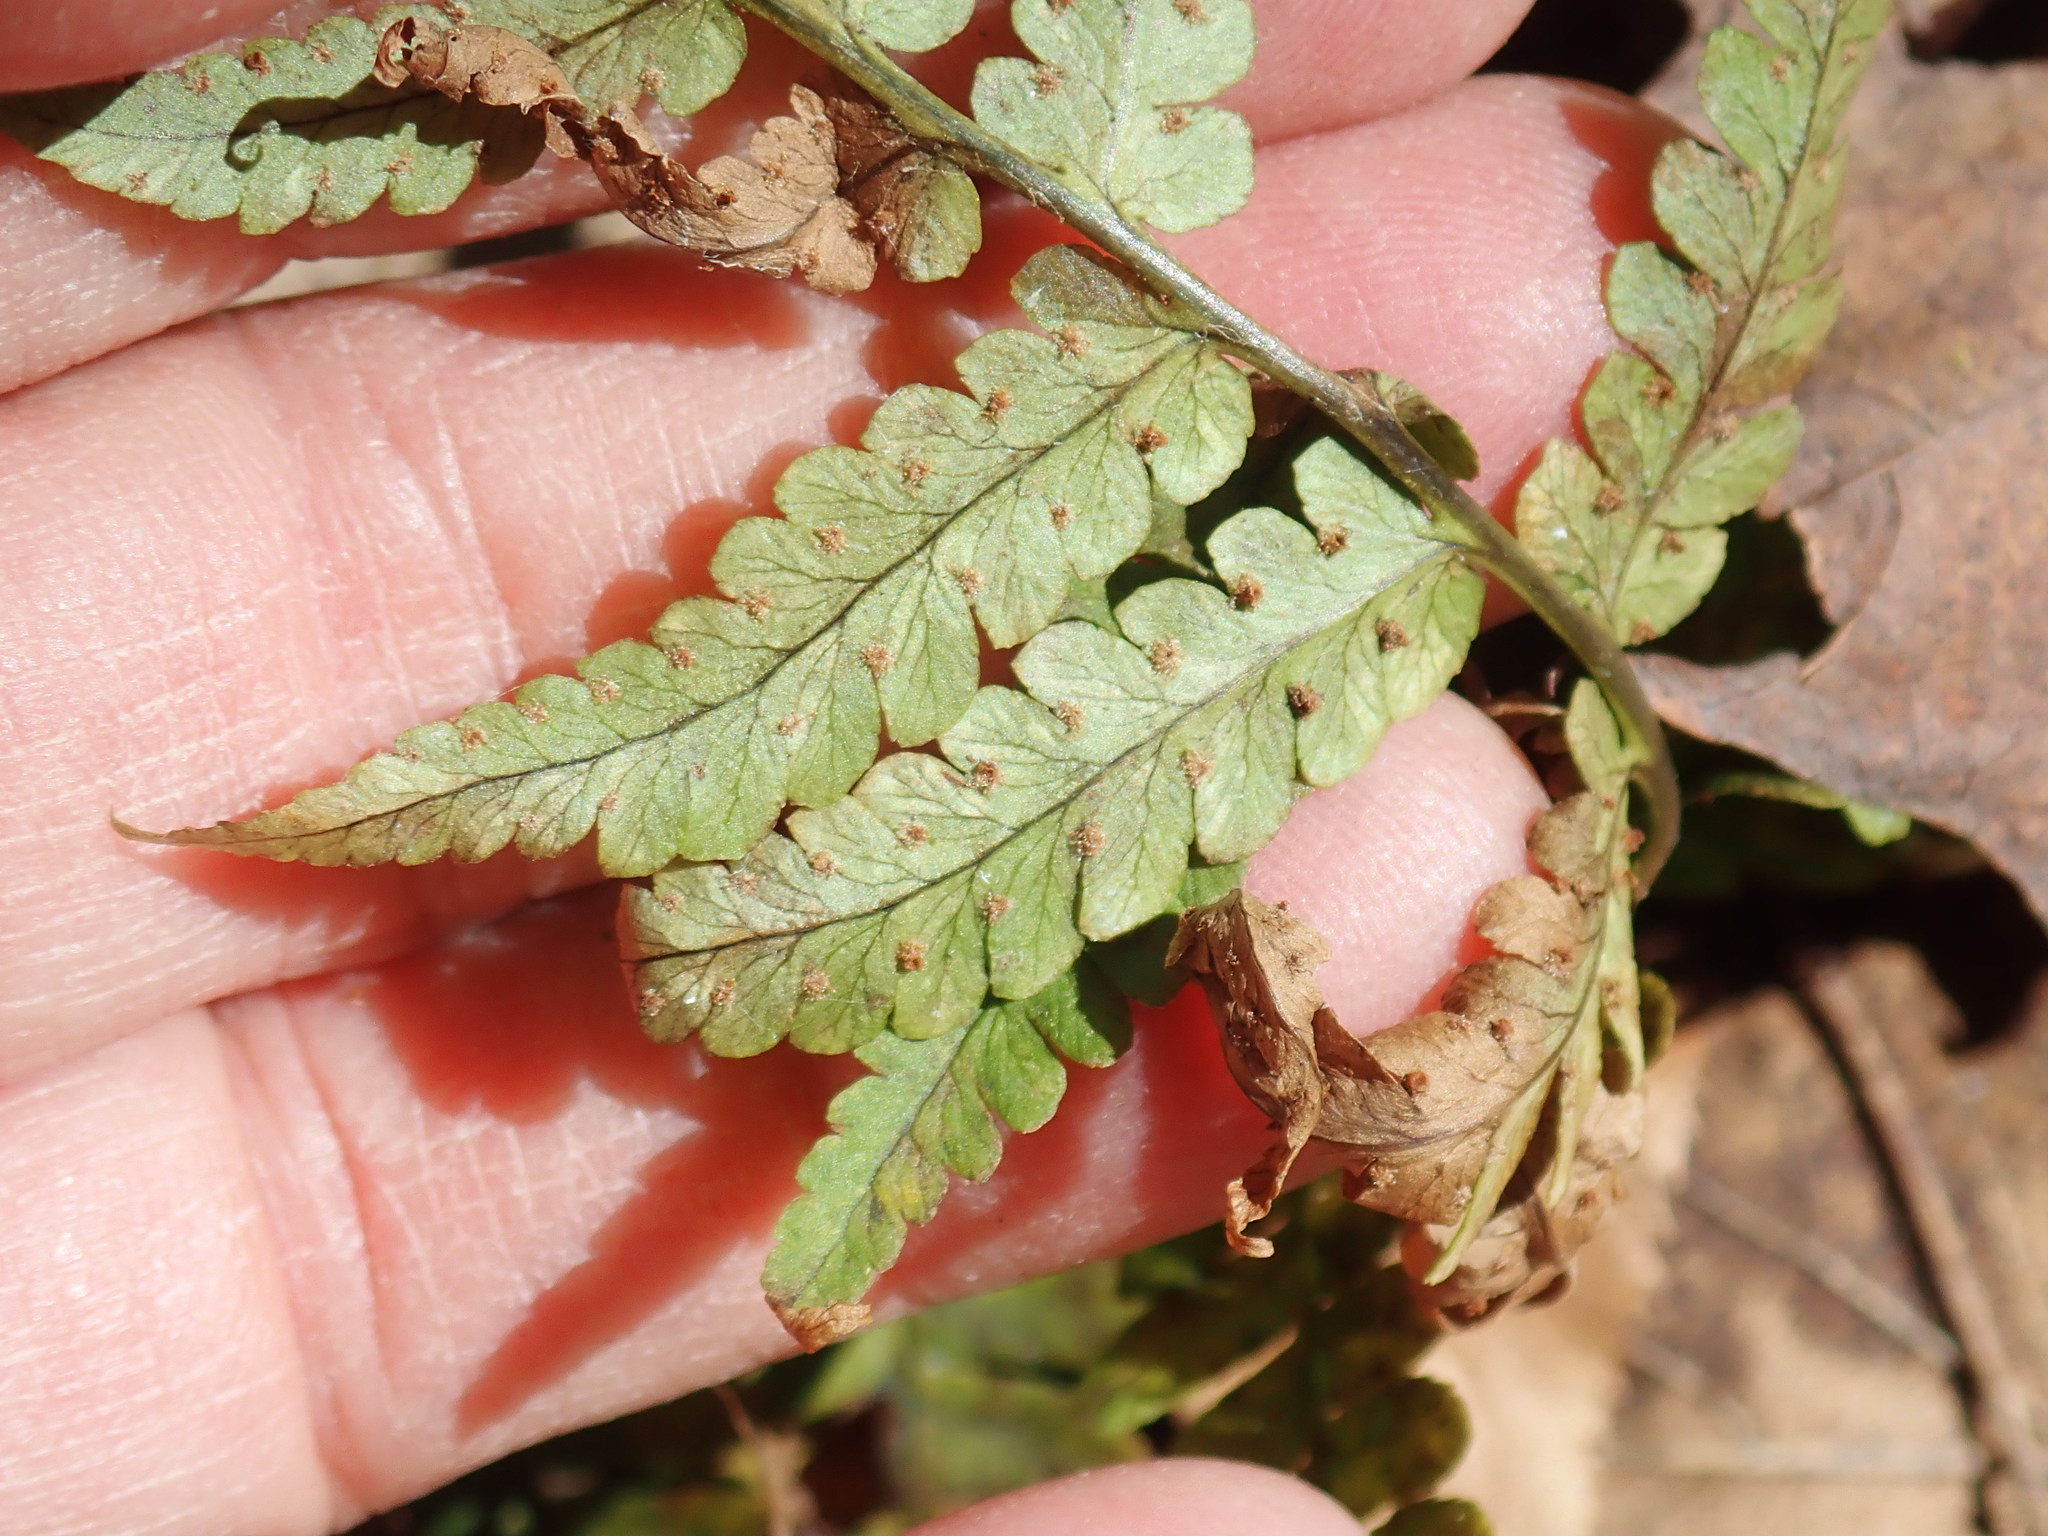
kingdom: Plantae
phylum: Tracheophyta
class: Polypodiopsida
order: Polypodiales
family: Dryopteridaceae
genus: Dryopteris
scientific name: Dryopteris marginalis
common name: Marginal wood fern
